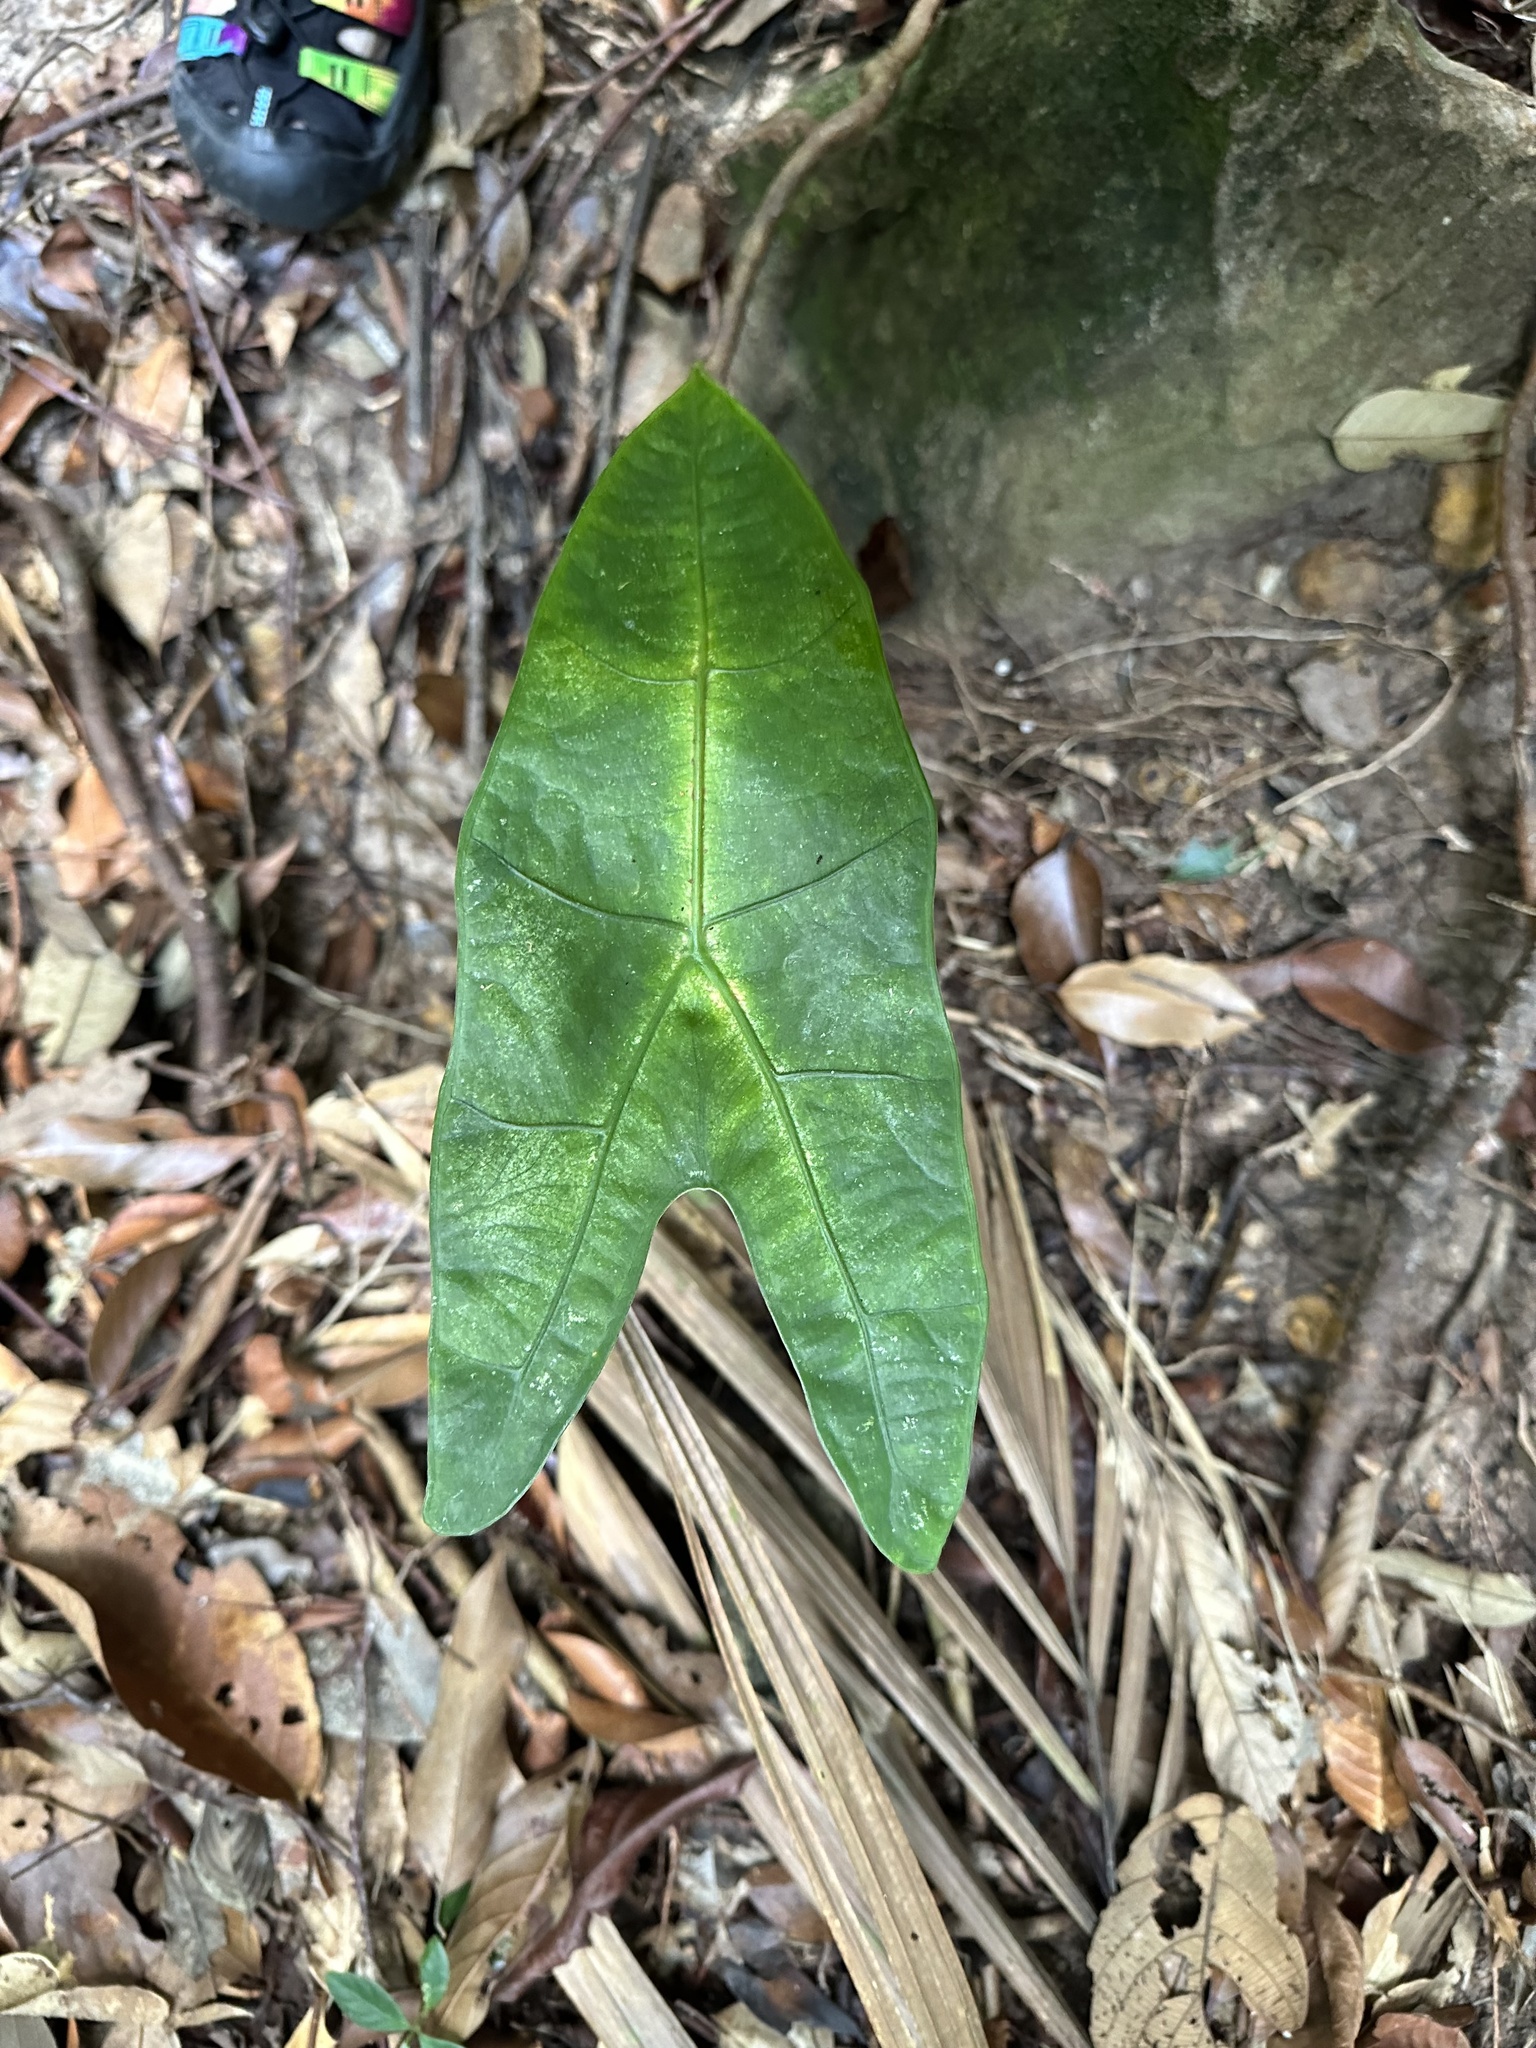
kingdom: Plantae
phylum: Tracheophyta
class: Liliopsida
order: Alismatales
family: Araceae
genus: Alocasia
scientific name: Alocasia longiloba
